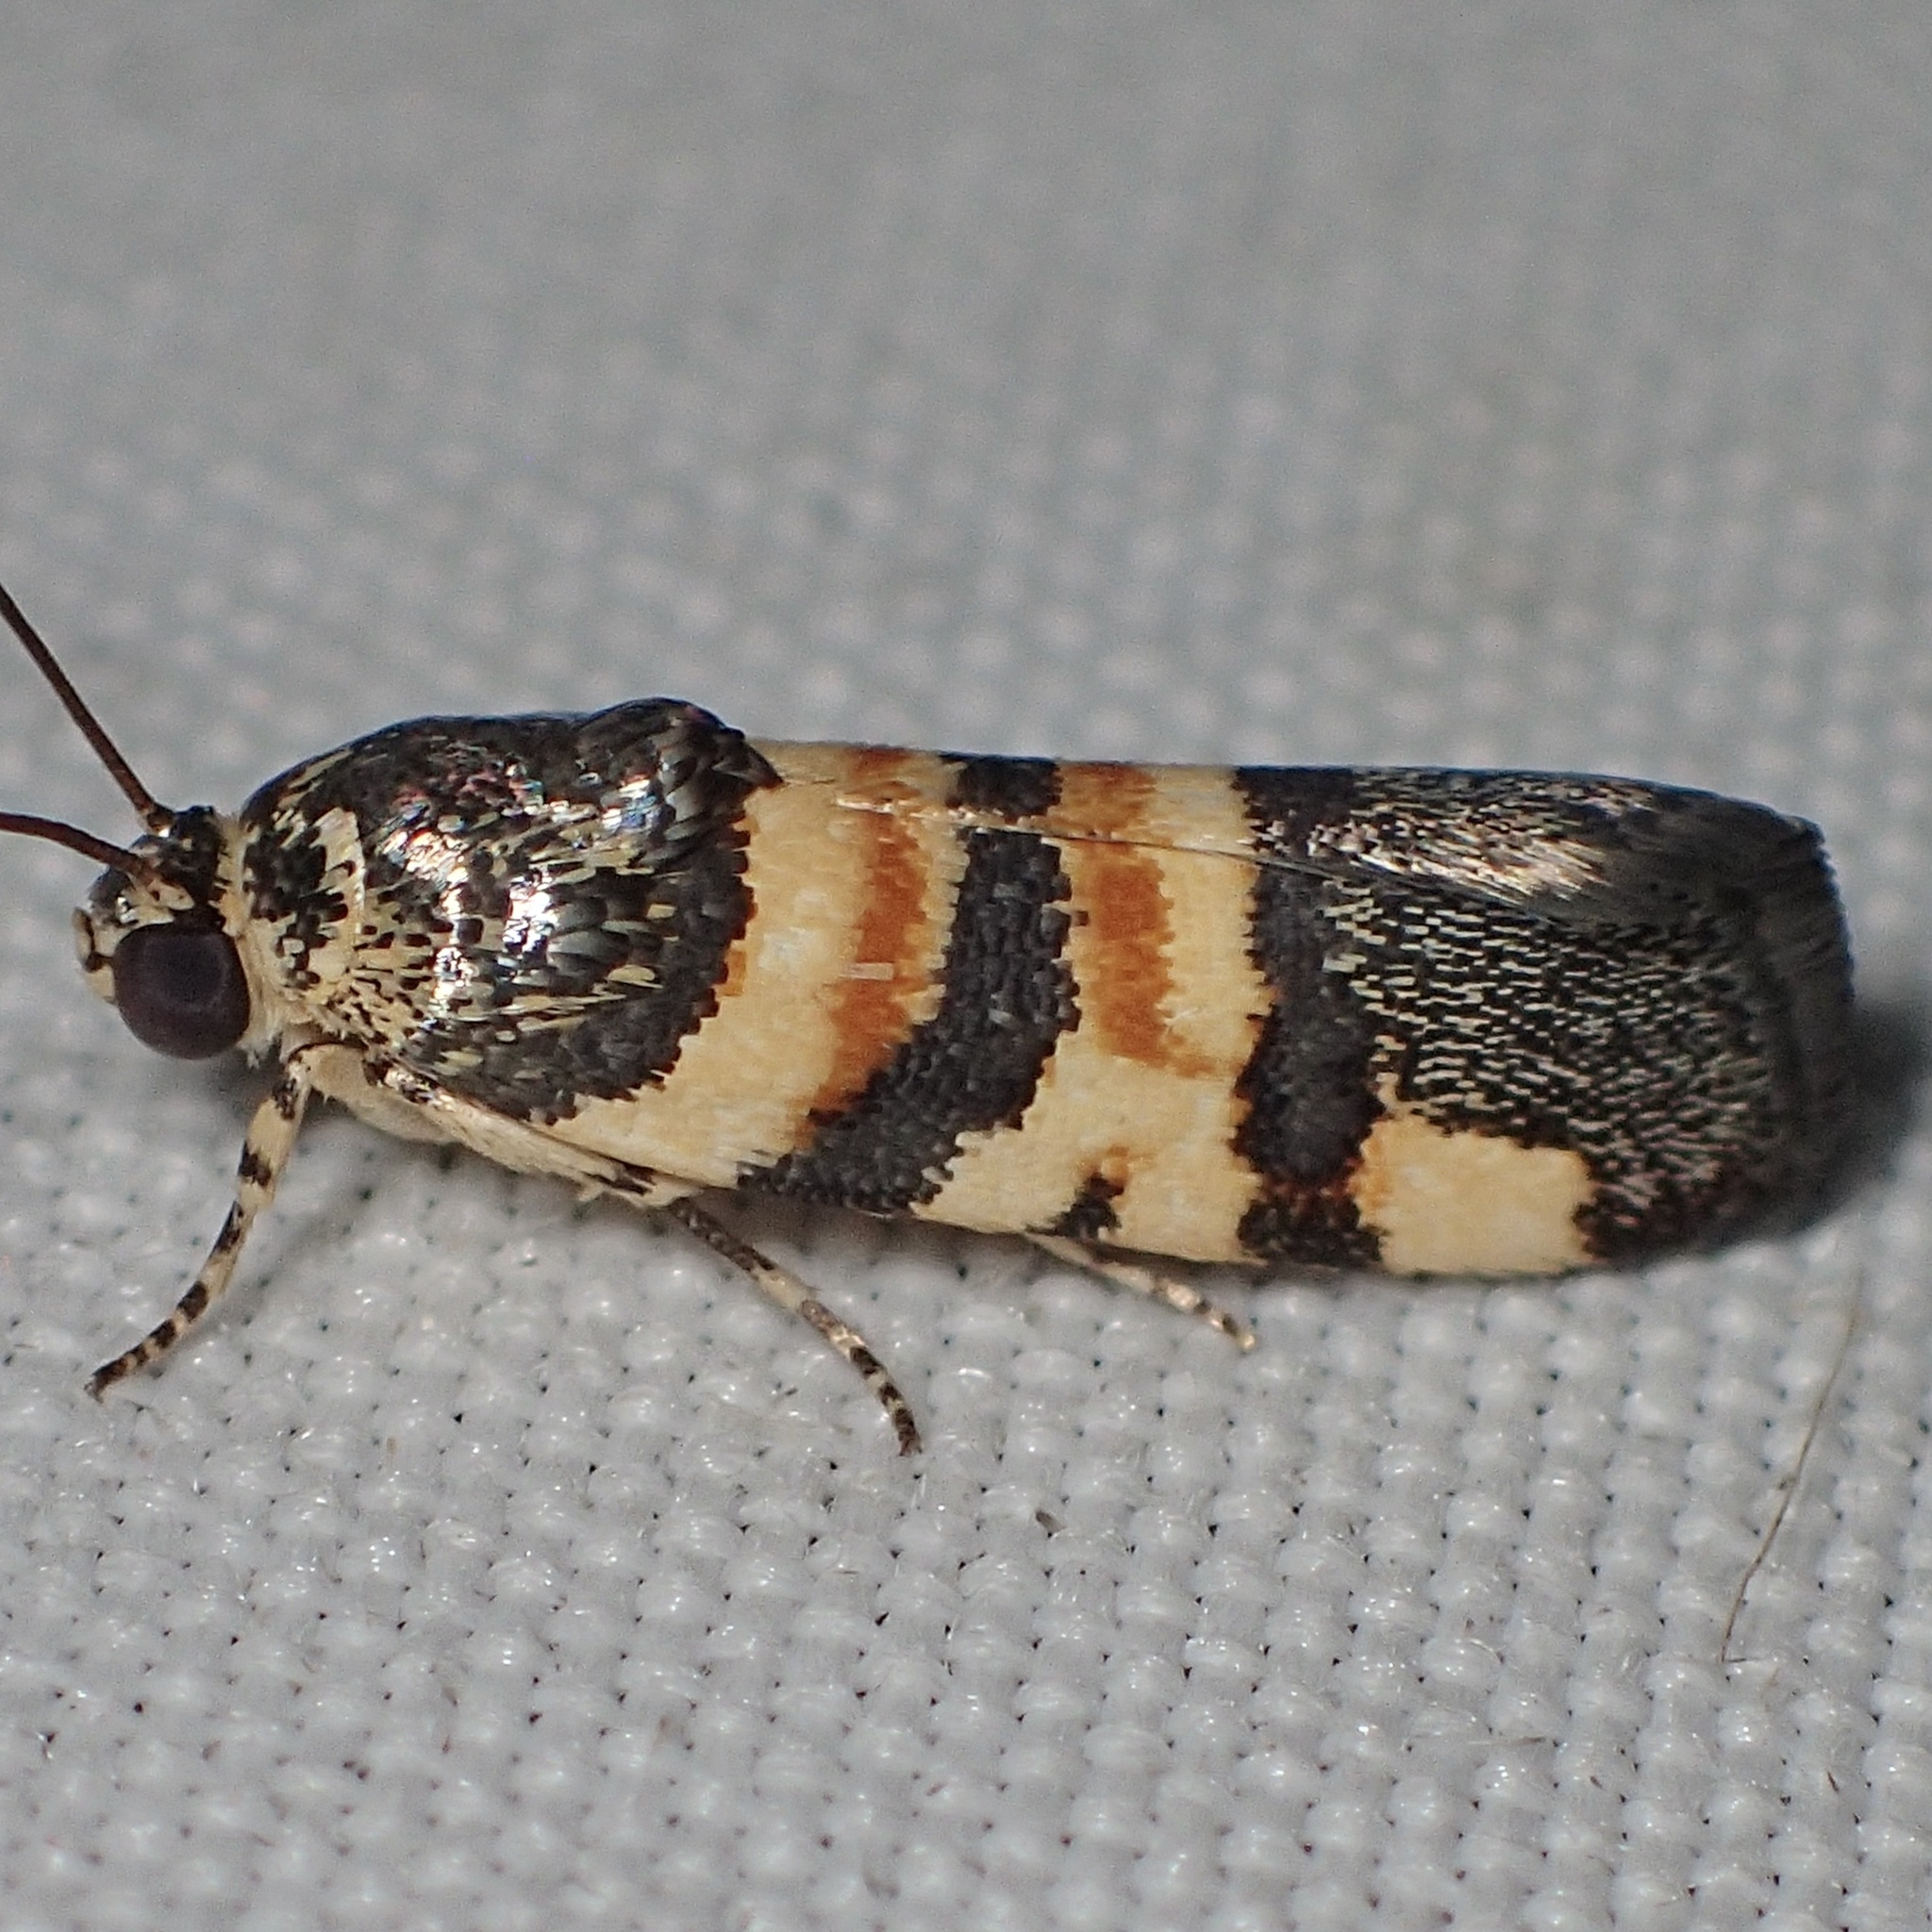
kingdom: Animalia
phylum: Arthropoda
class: Insecta
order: Lepidoptera
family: Noctuidae
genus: Spragueia
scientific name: Spragueia funeralis
